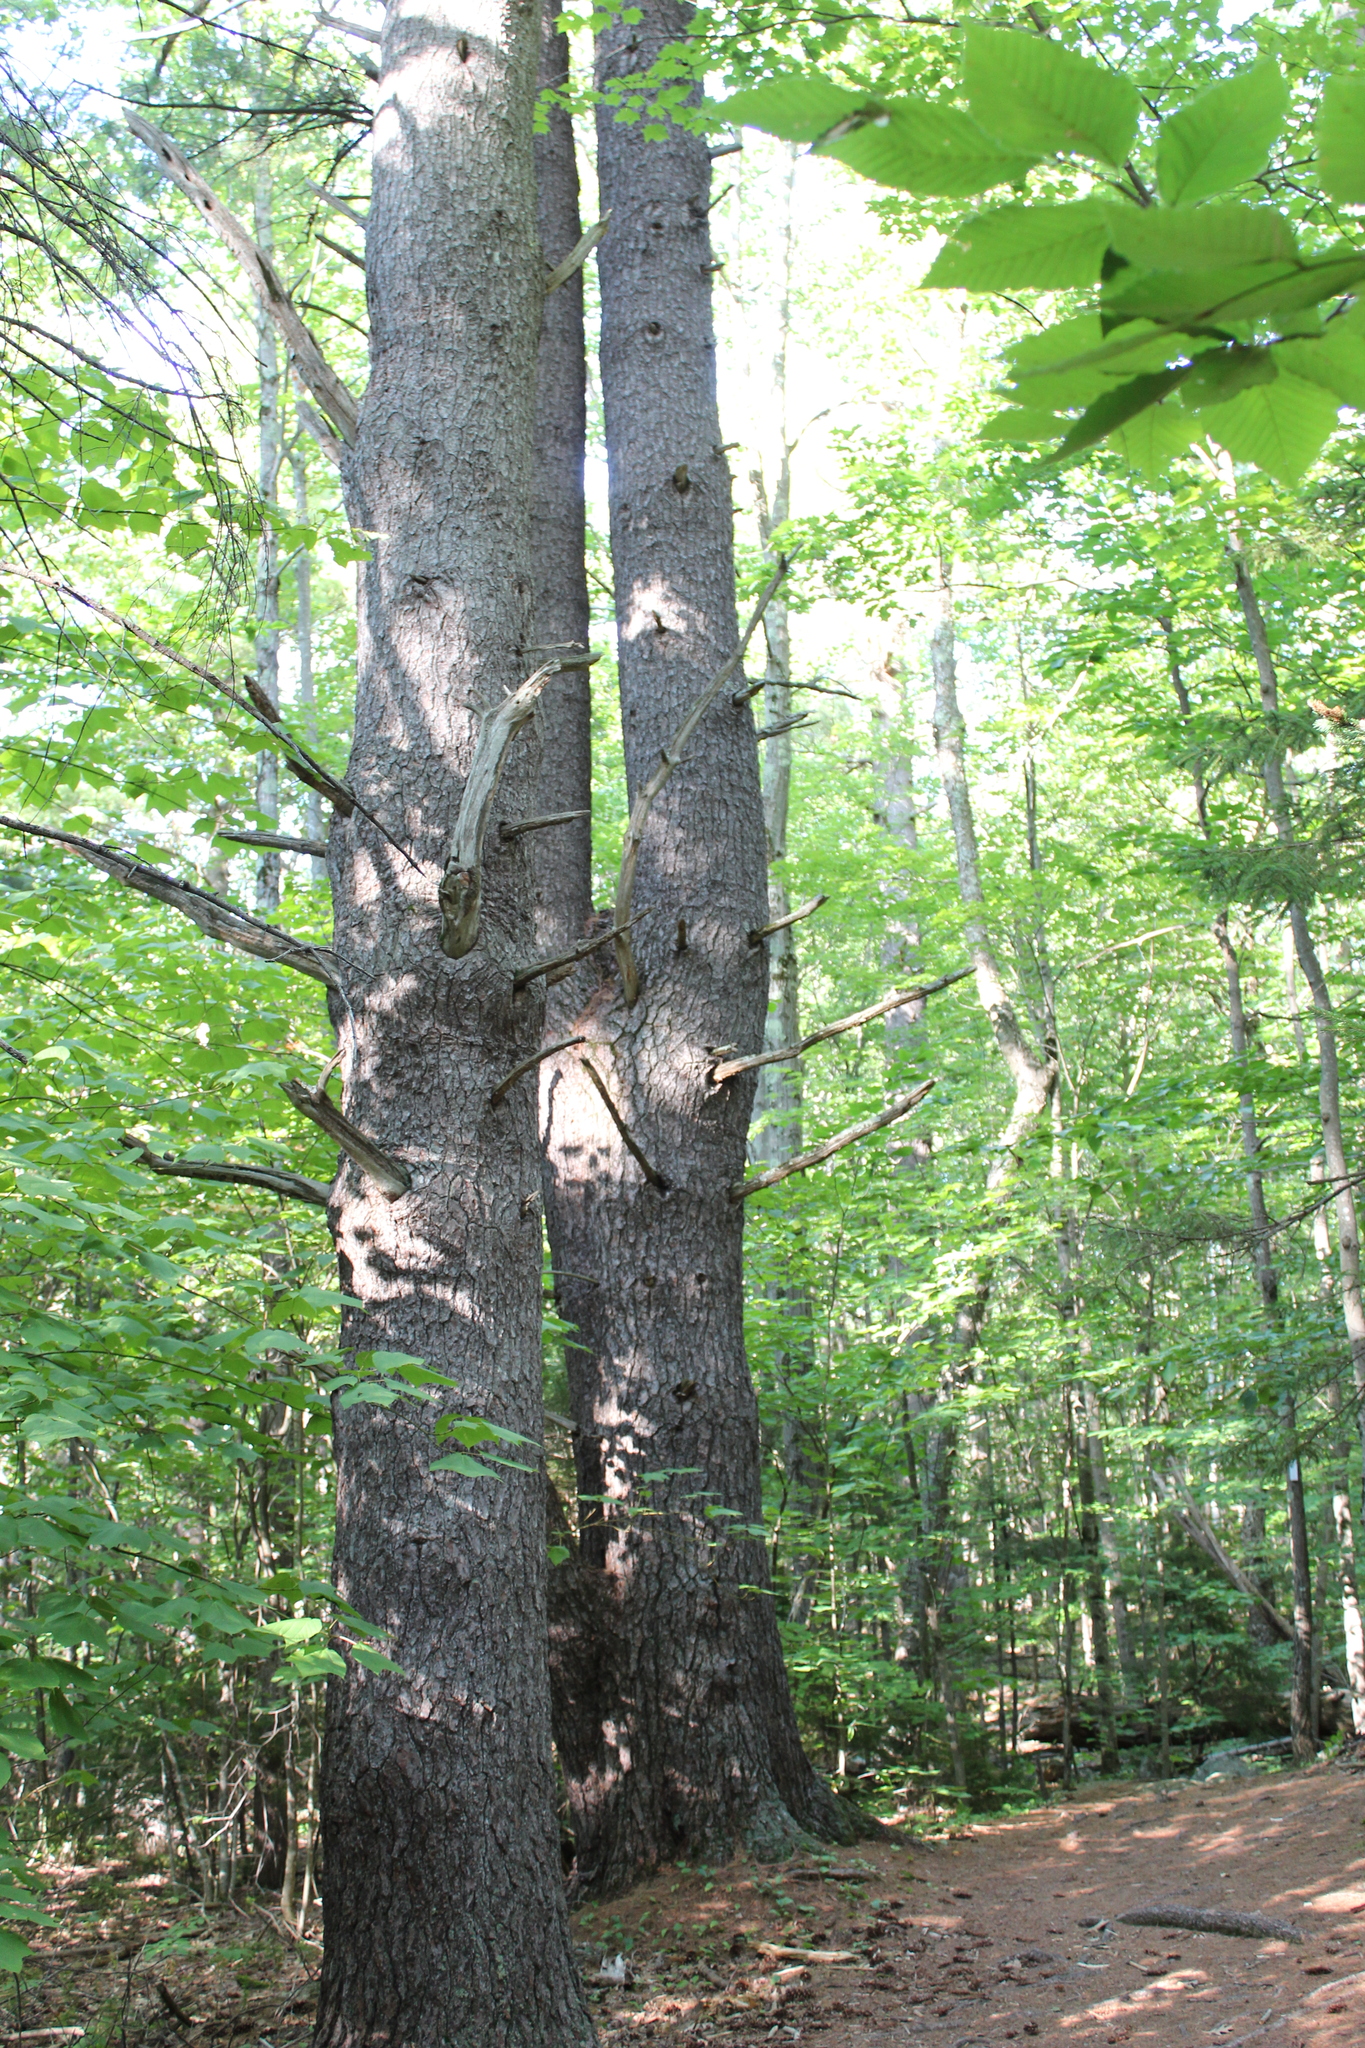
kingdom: Plantae
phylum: Tracheophyta
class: Pinopsida
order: Pinales
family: Pinaceae
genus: Pinus
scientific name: Pinus strobus
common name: Weymouth pine
